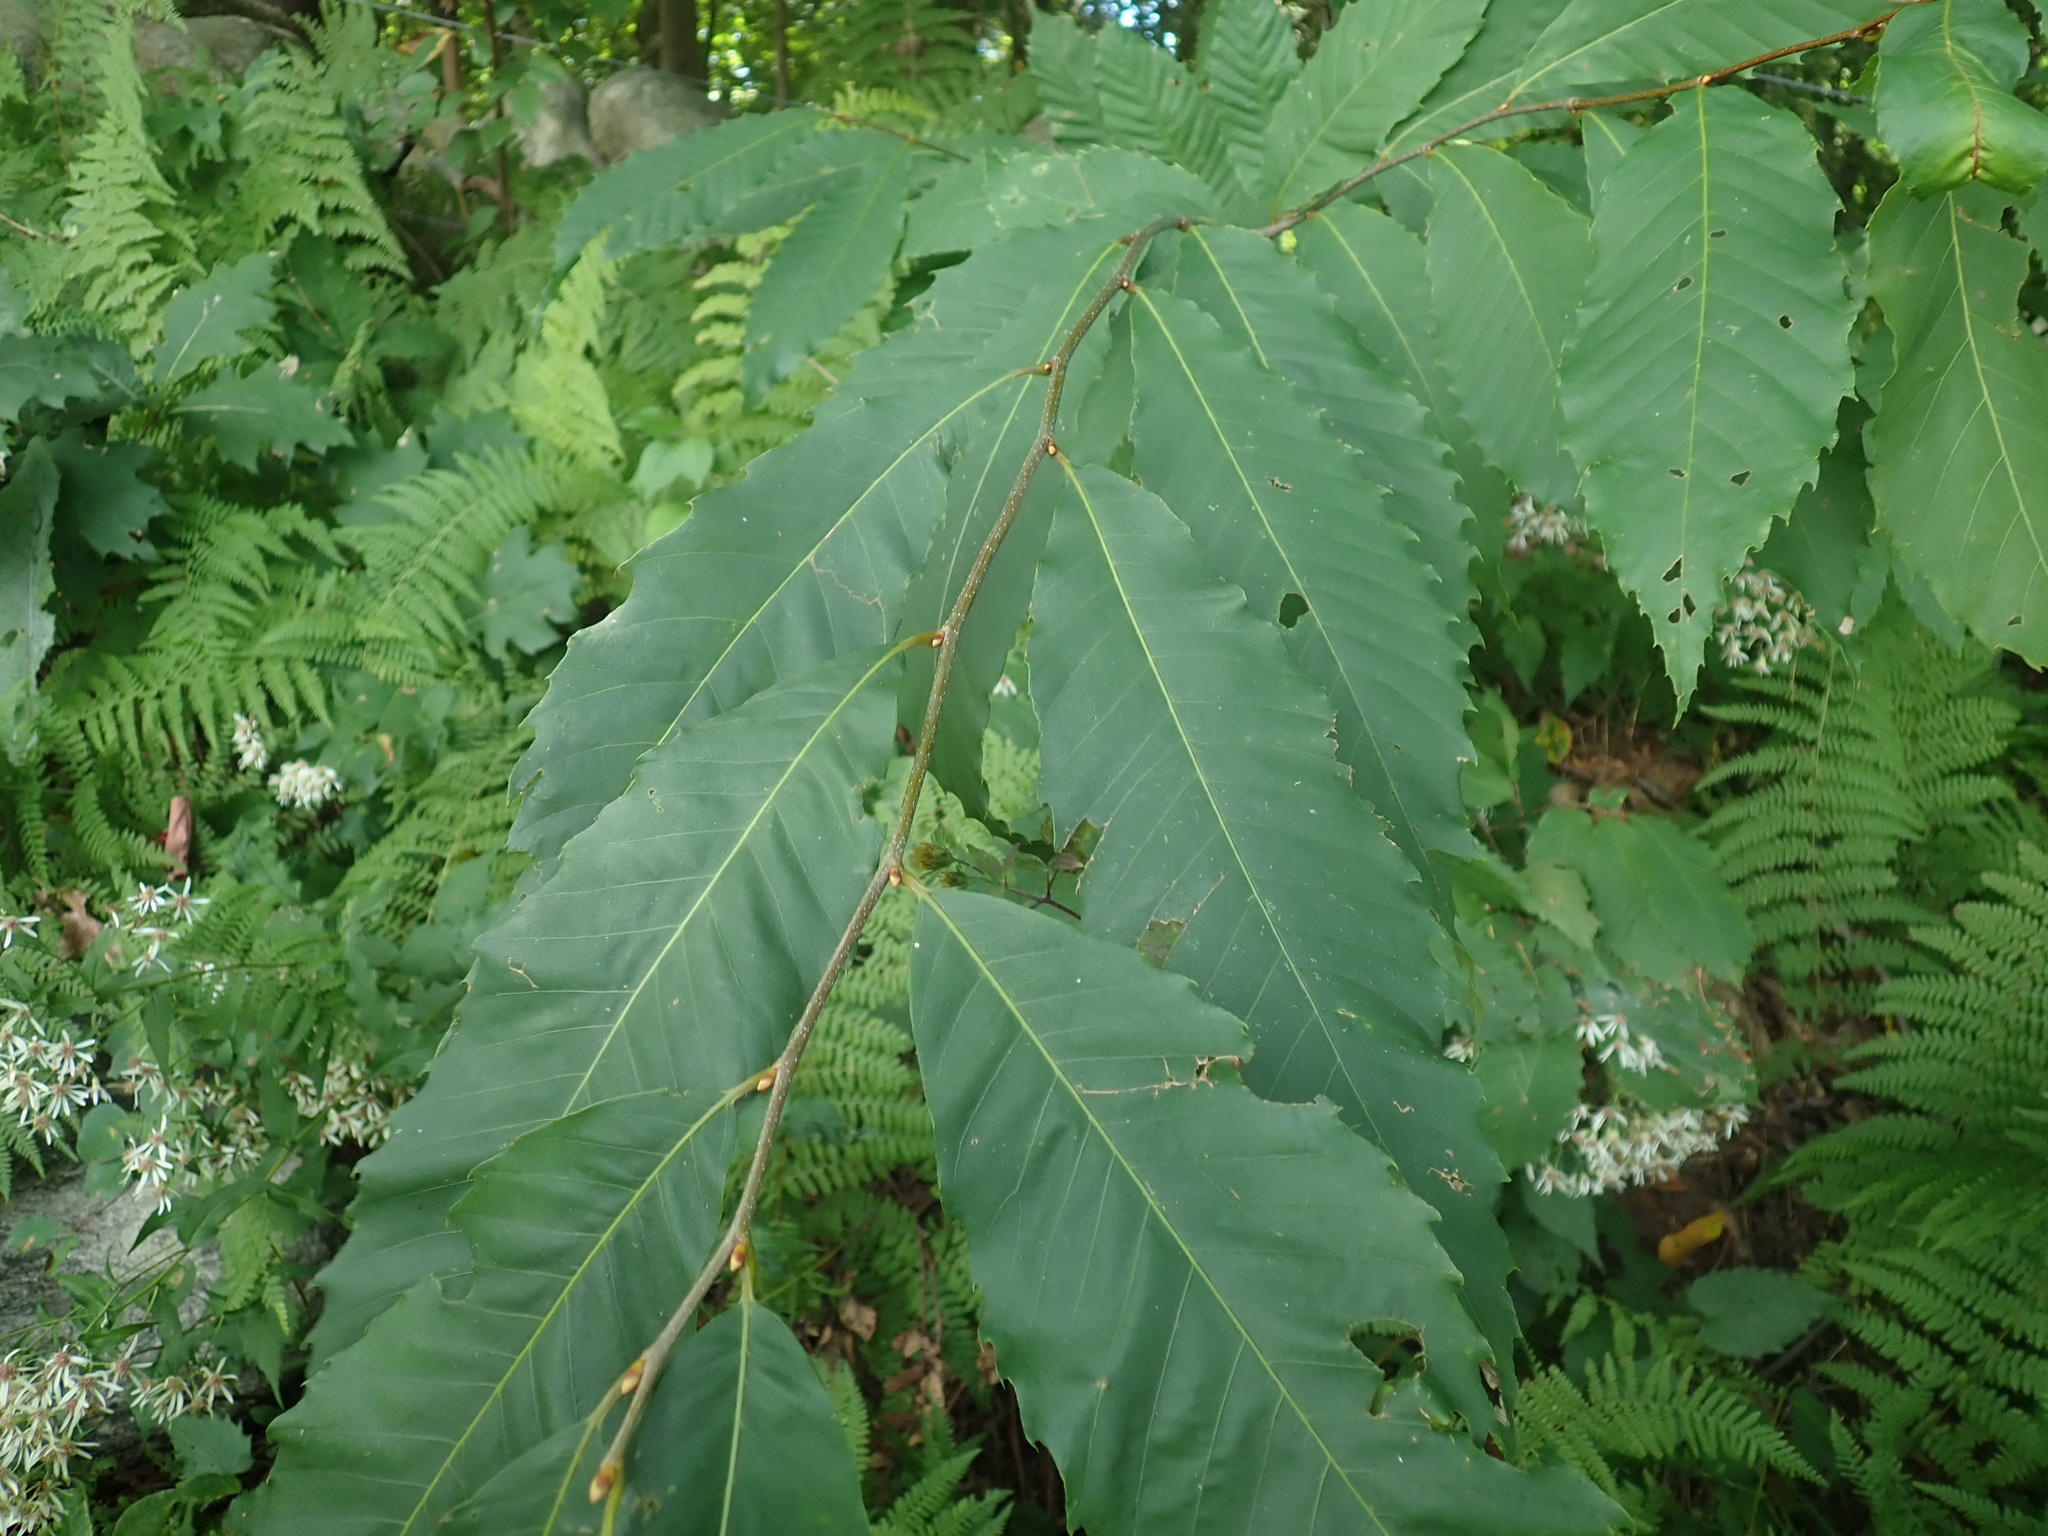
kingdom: Plantae
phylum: Tracheophyta
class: Magnoliopsida
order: Fagales
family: Fagaceae
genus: Castanea
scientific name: Castanea dentata
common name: American chestnut
